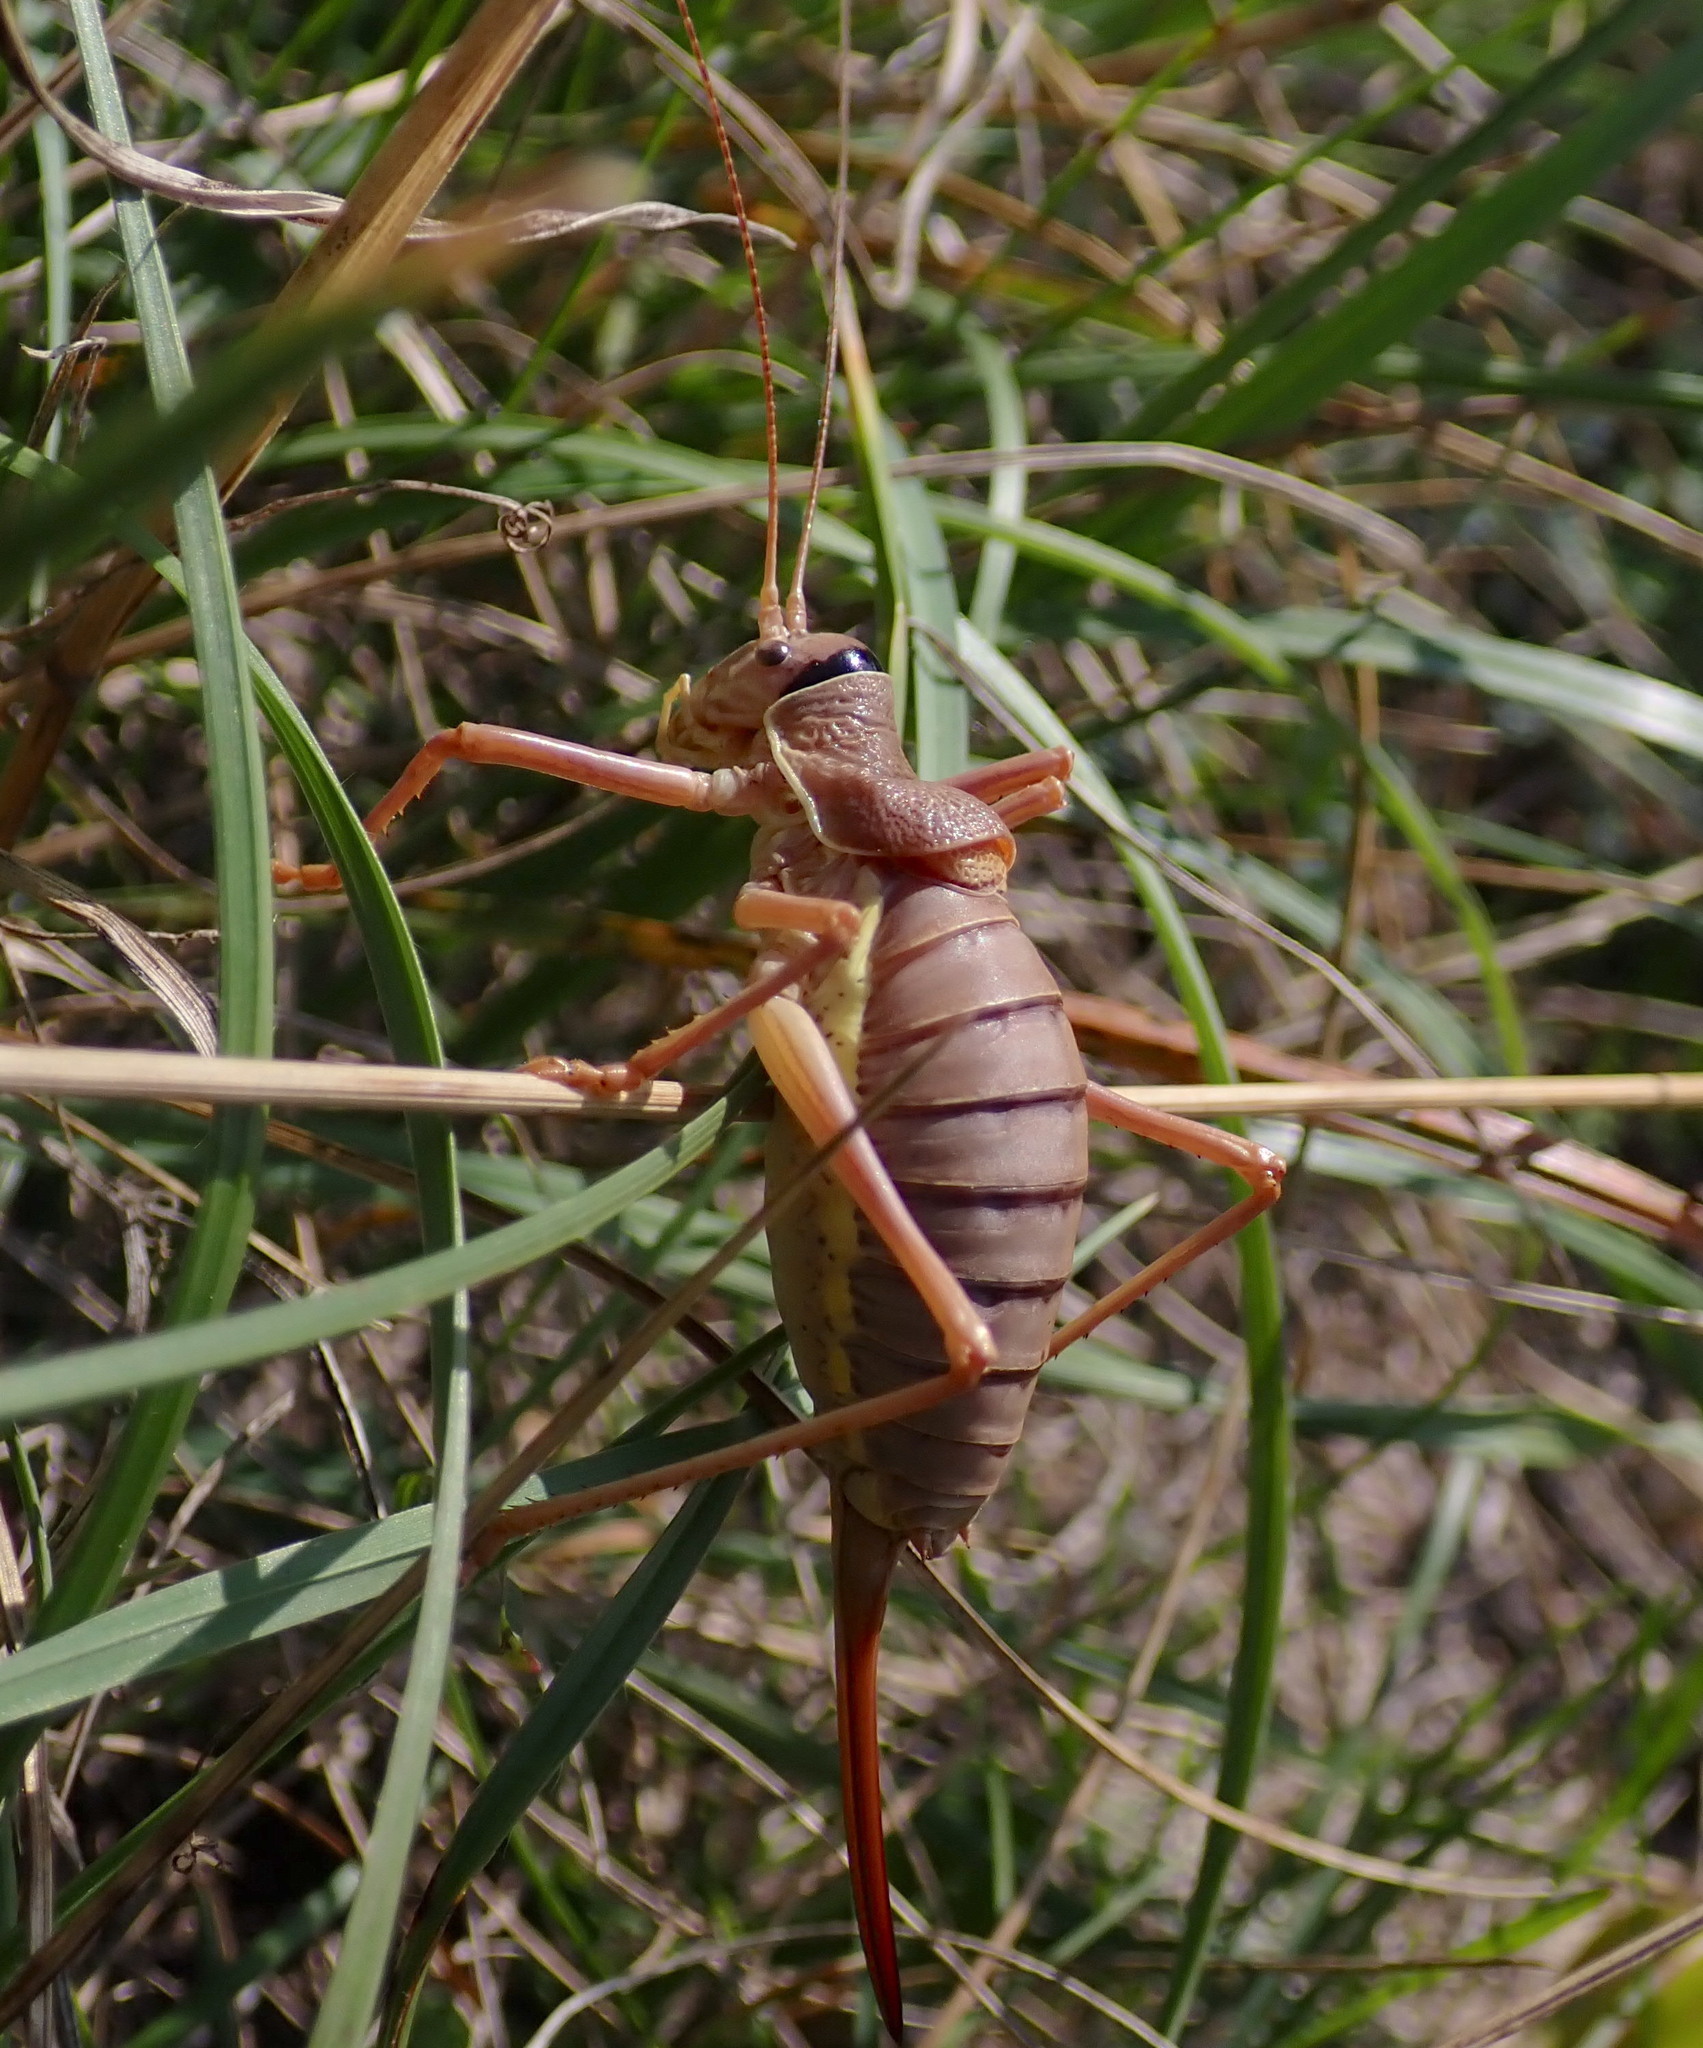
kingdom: Animalia
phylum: Arthropoda
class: Insecta
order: Orthoptera
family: Tettigoniidae
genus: Ephippiger
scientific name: Ephippiger ephippiger
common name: Eastern saddle bush-cricket
